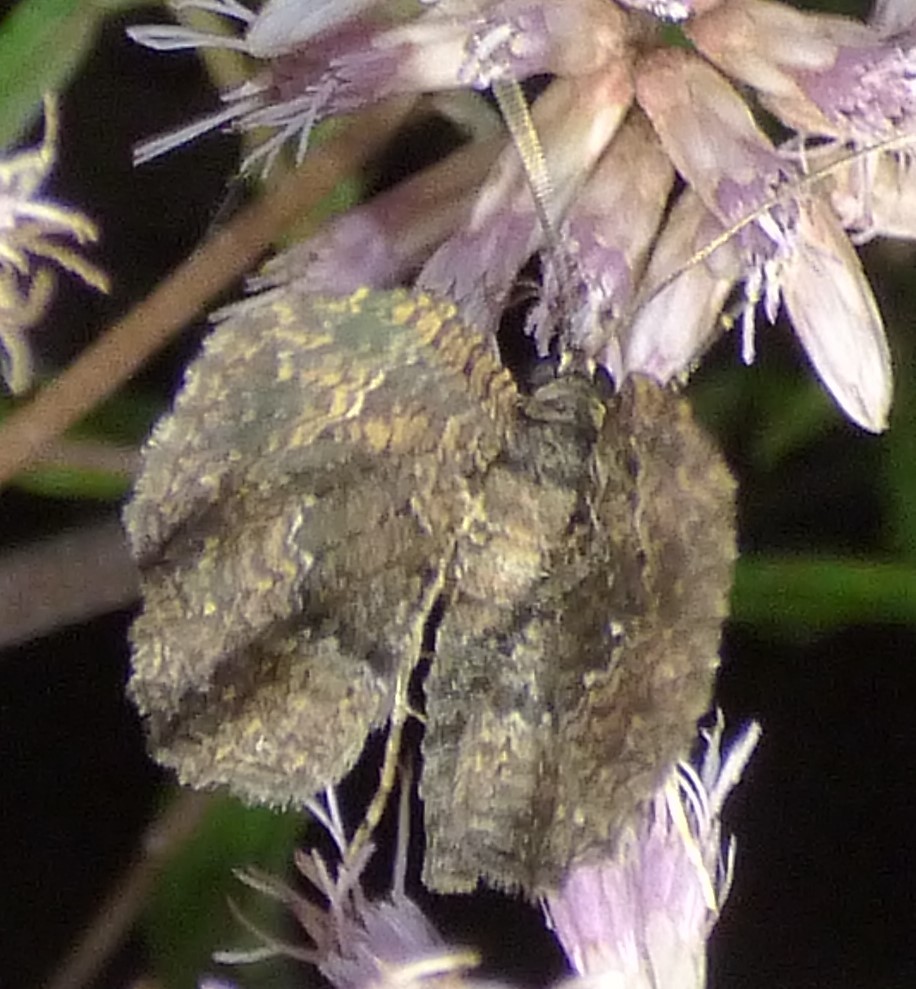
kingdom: Animalia
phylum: Arthropoda
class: Insecta
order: Lepidoptera
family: Geometridae
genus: Disclisioprocta
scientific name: Disclisioprocta stellata
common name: Somber carpet
